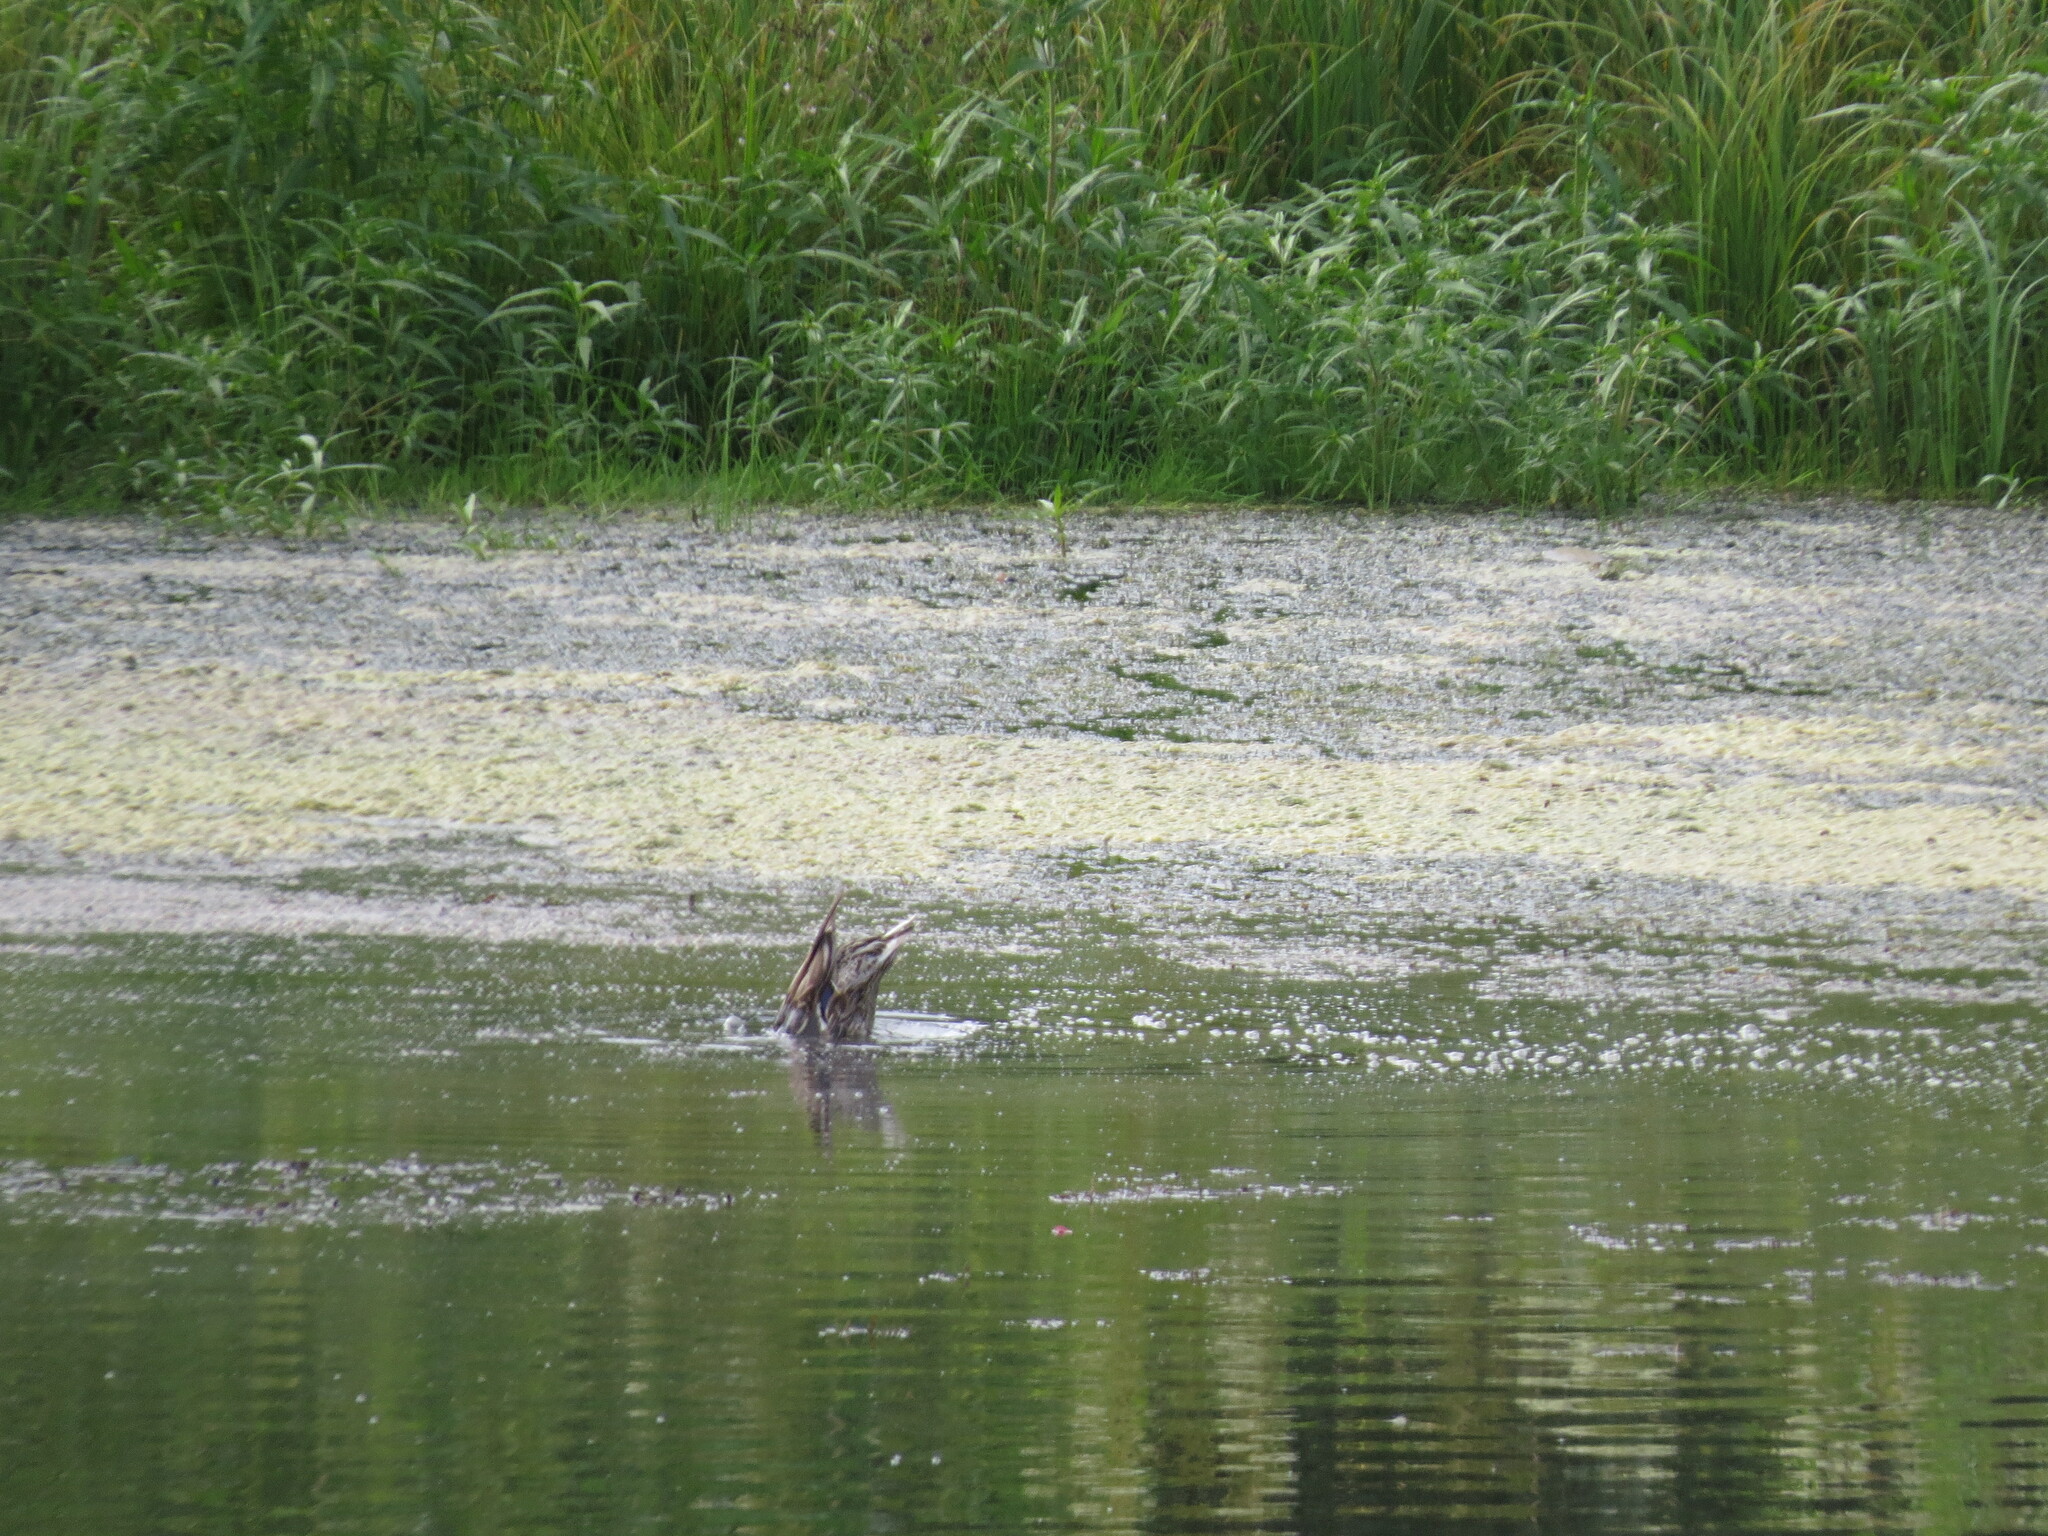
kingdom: Animalia
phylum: Chordata
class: Aves
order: Anseriformes
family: Anatidae
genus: Anas
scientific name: Anas platyrhynchos
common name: Mallard
